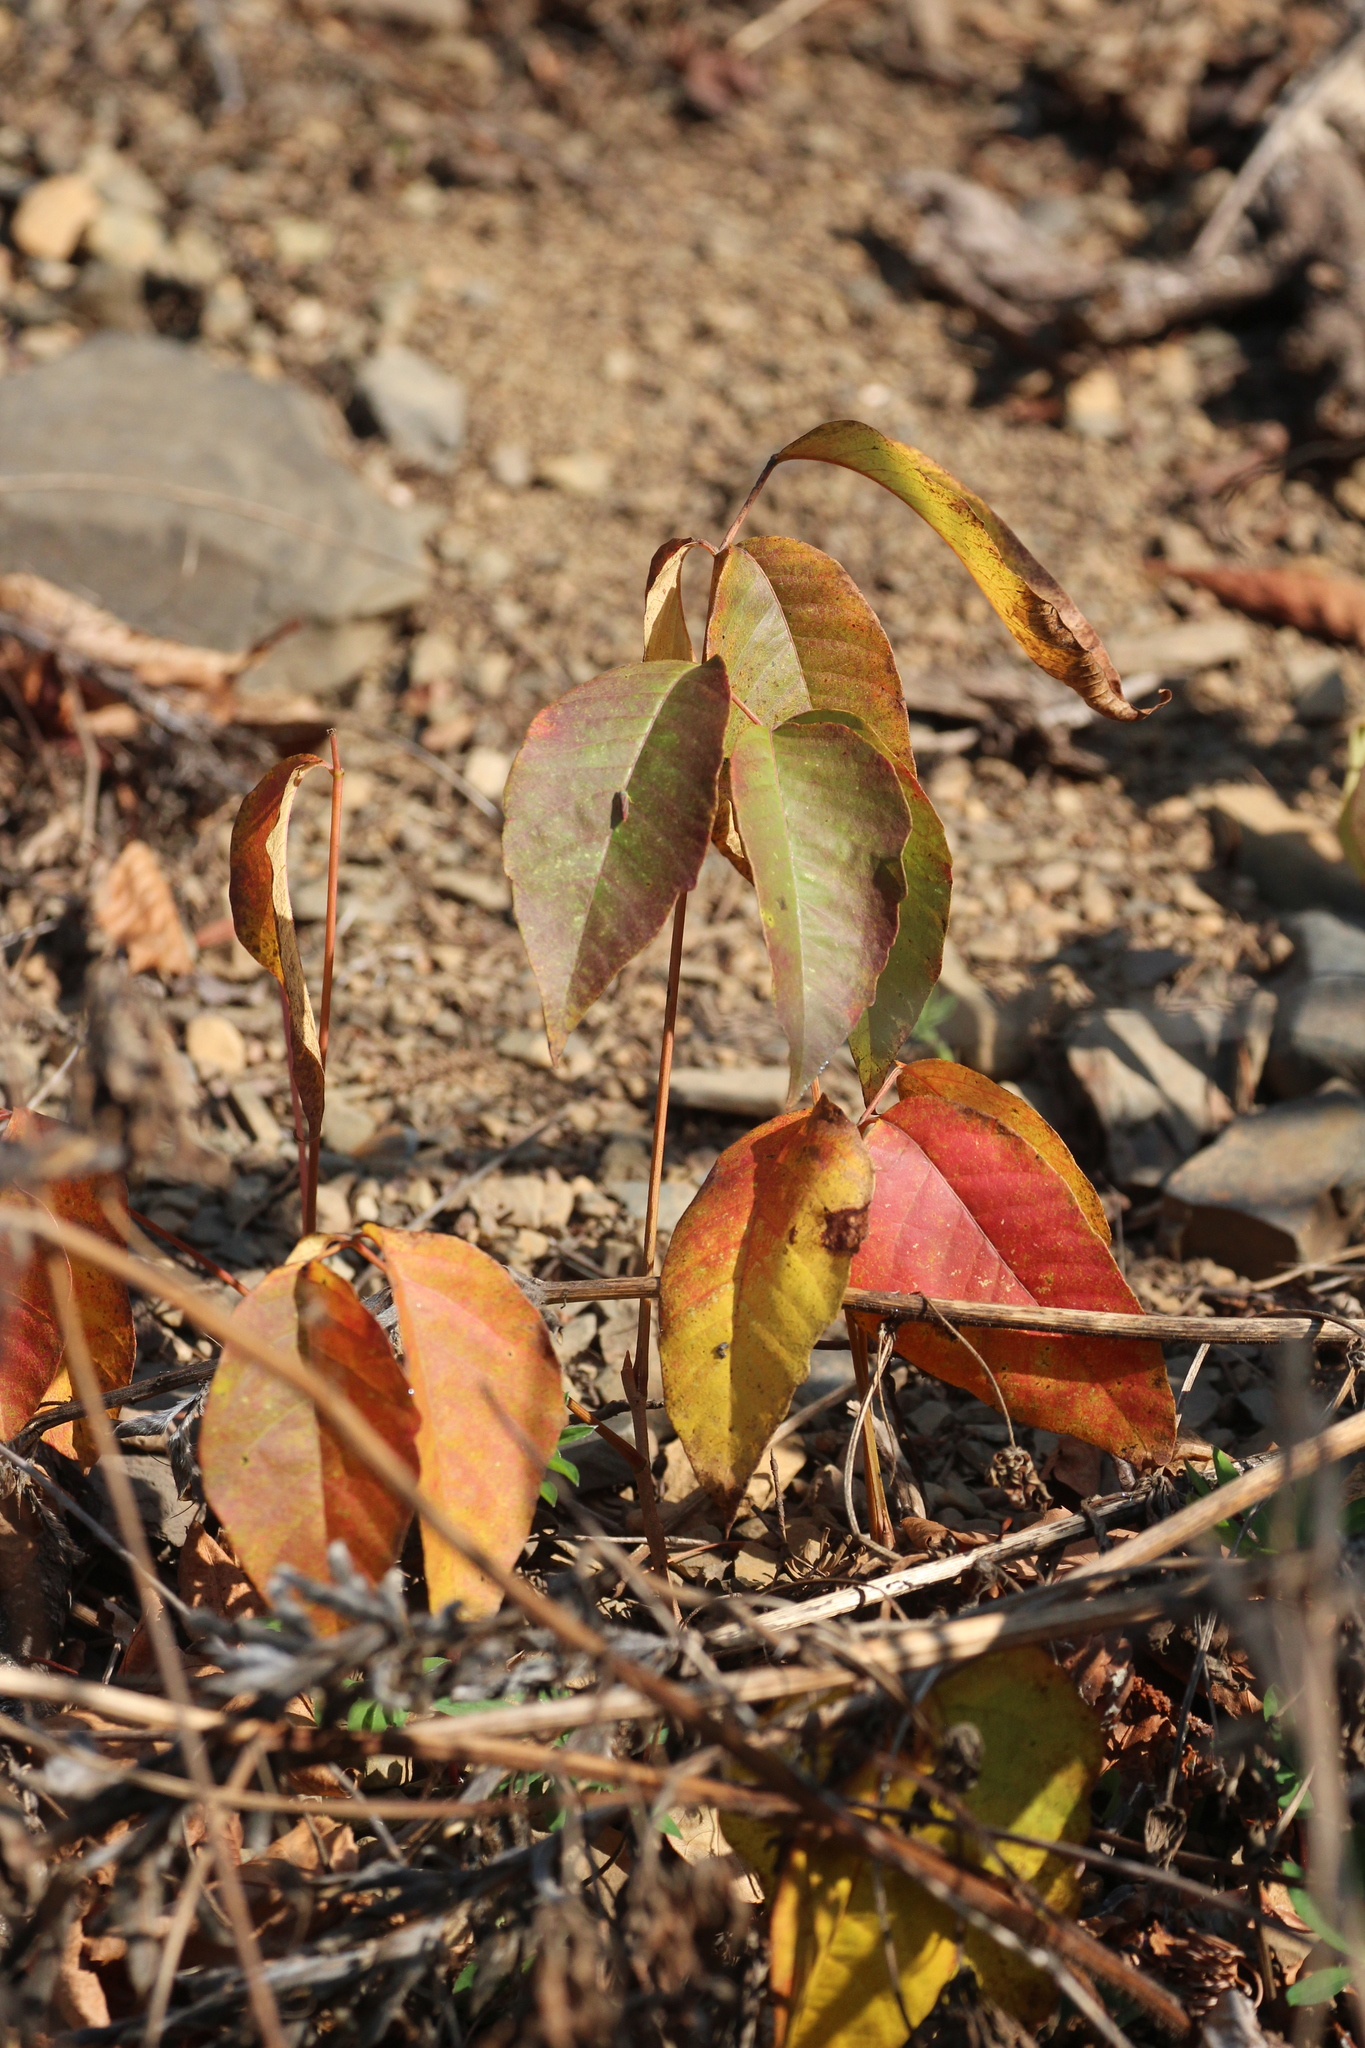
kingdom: Plantae
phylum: Tracheophyta
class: Magnoliopsida
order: Sapindales
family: Anacardiaceae
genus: Toxicodendron
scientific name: Toxicodendron rydbergii
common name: Rydberg's poison-ivy
